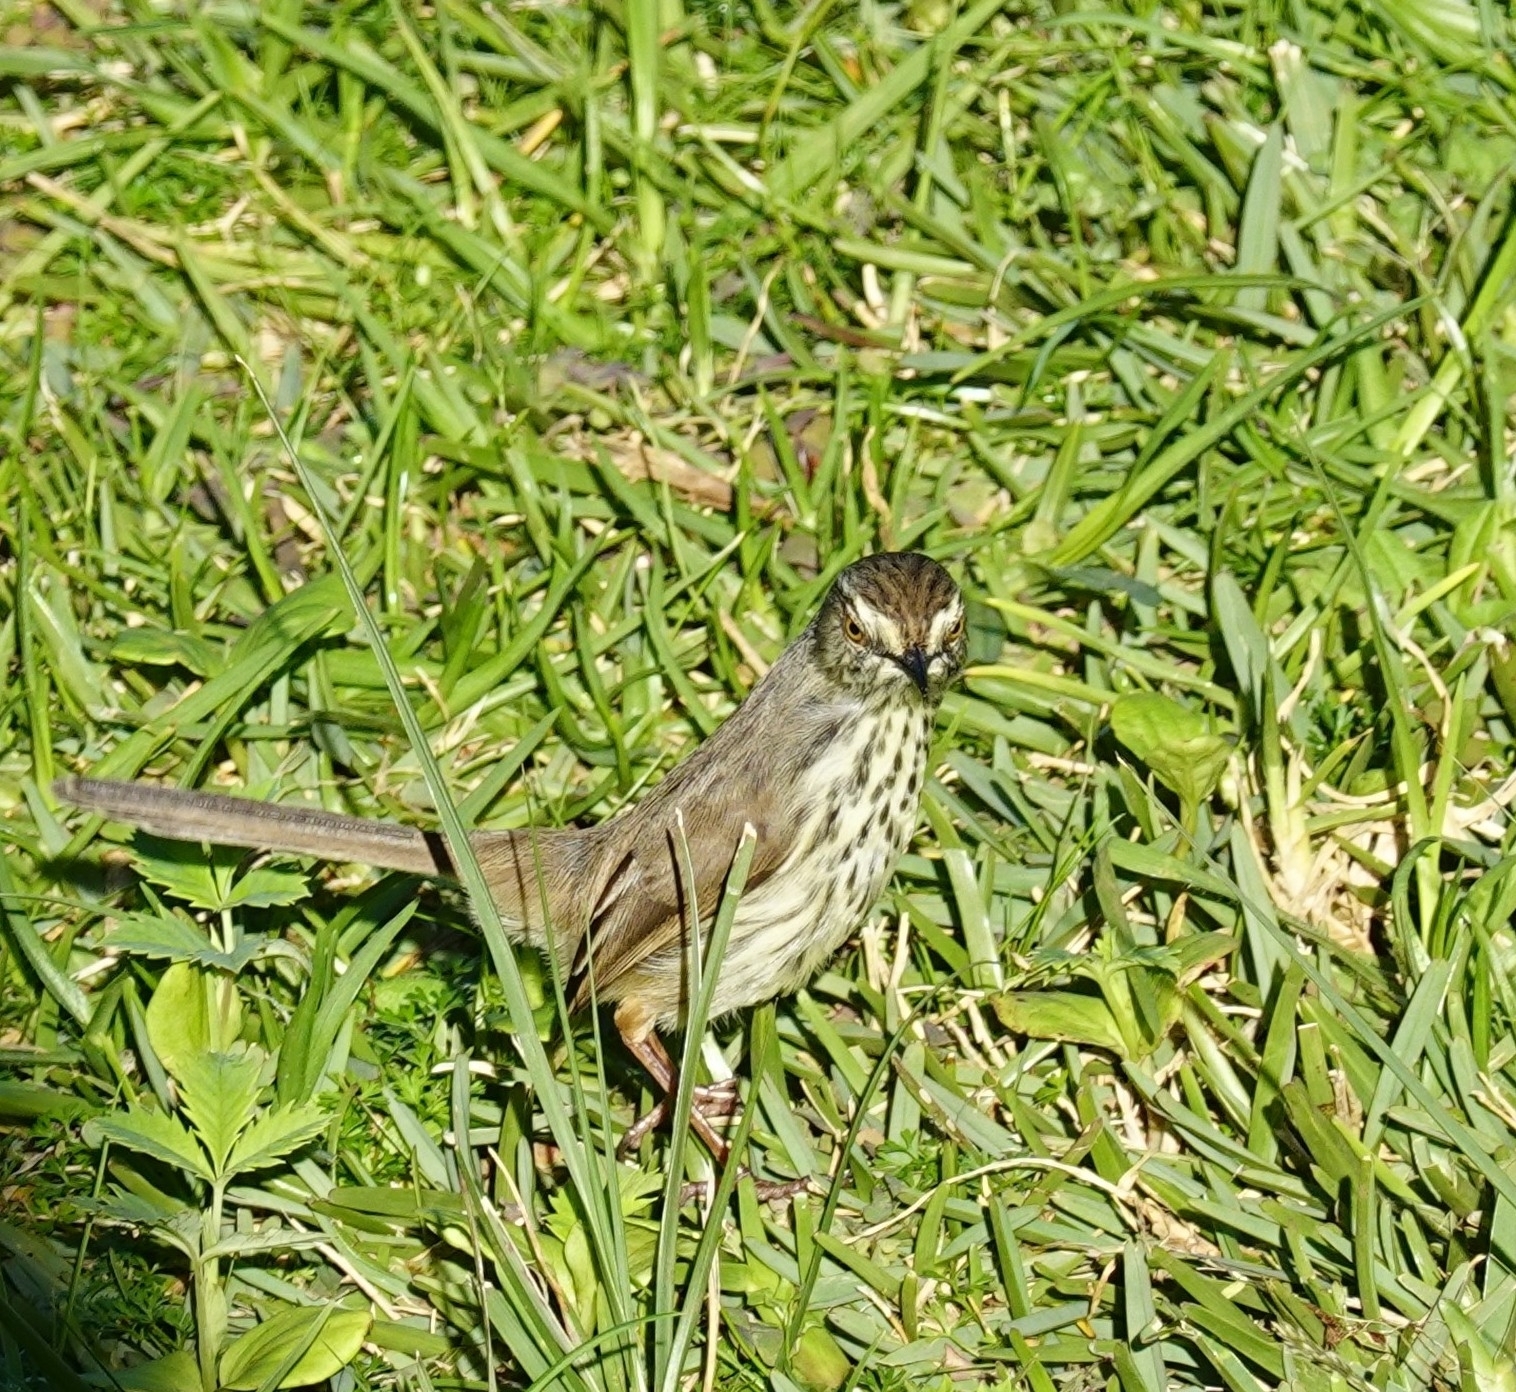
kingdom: Animalia
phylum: Chordata
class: Aves
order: Passeriformes
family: Cisticolidae
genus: Prinia
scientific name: Prinia maculosa
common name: Karoo prinia
